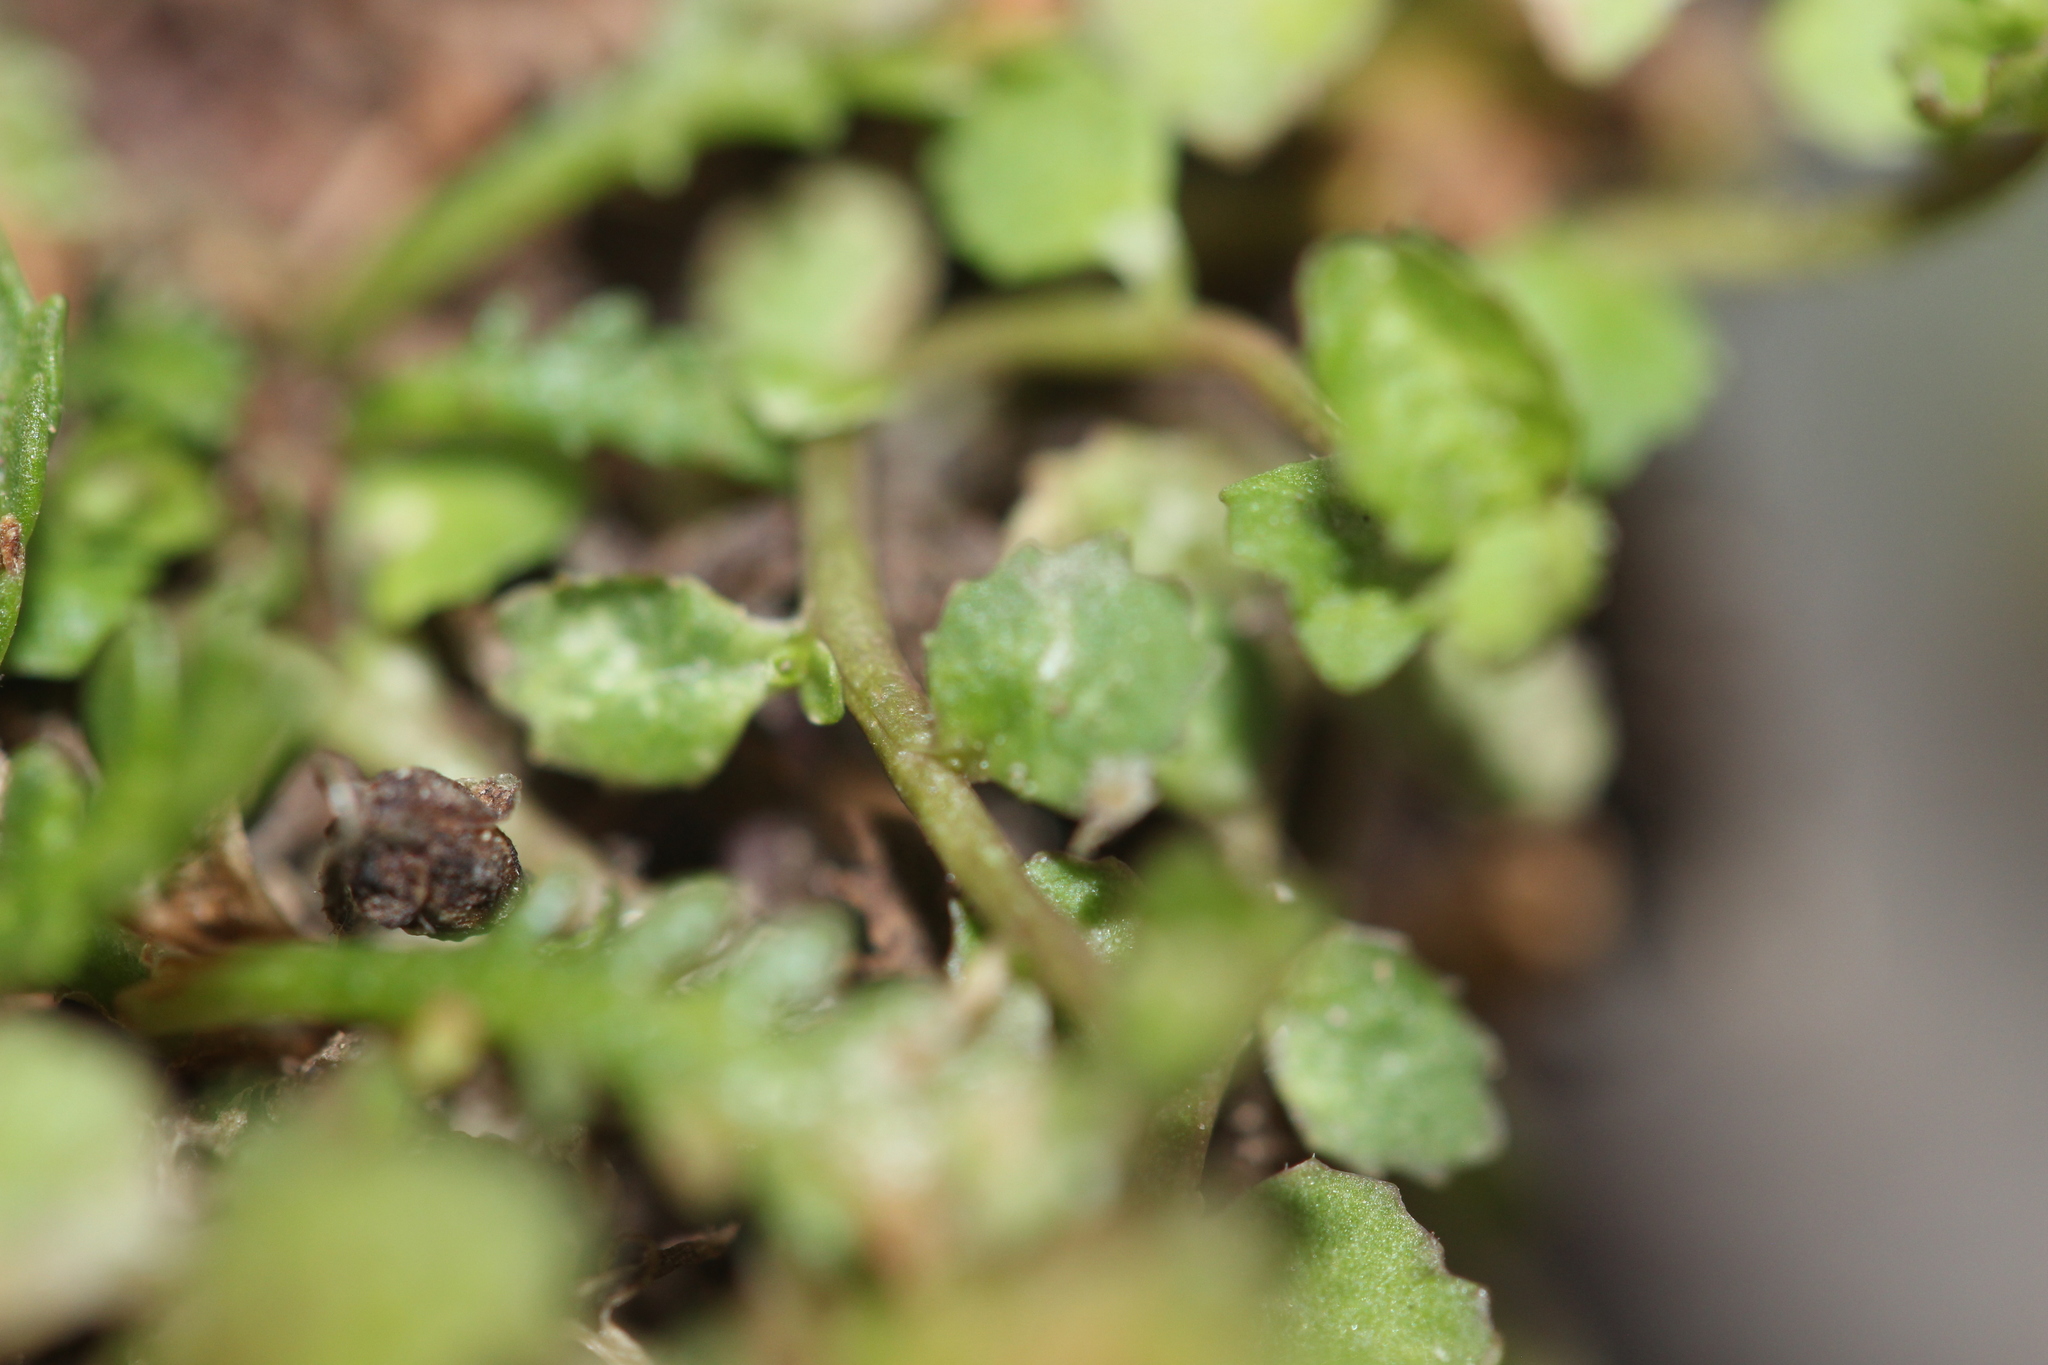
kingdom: Plantae
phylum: Tracheophyta
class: Magnoliopsida
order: Asterales
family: Campanulaceae
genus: Lobelia
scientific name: Lobelia perpusilla
